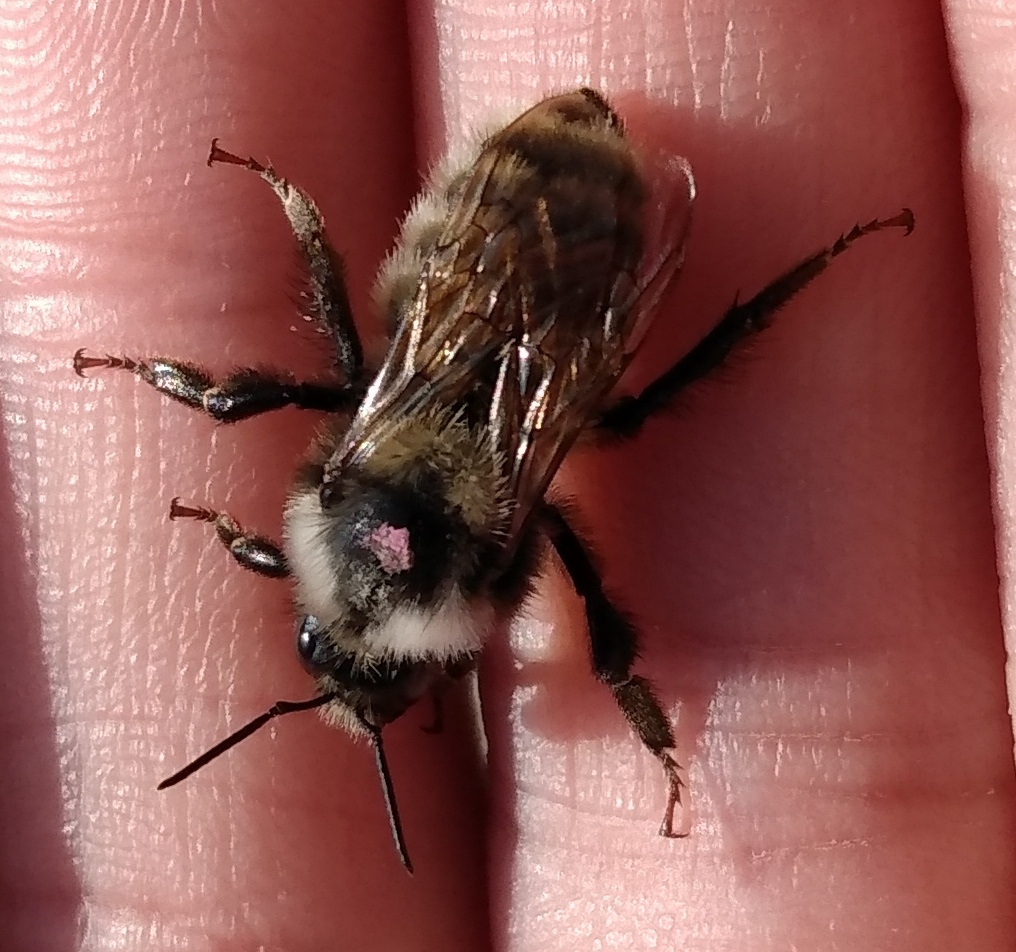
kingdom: Animalia
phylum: Arthropoda
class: Insecta
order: Hymenoptera
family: Apidae
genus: Bombus
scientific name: Bombus appositus
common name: White-shouldered bumble bee
